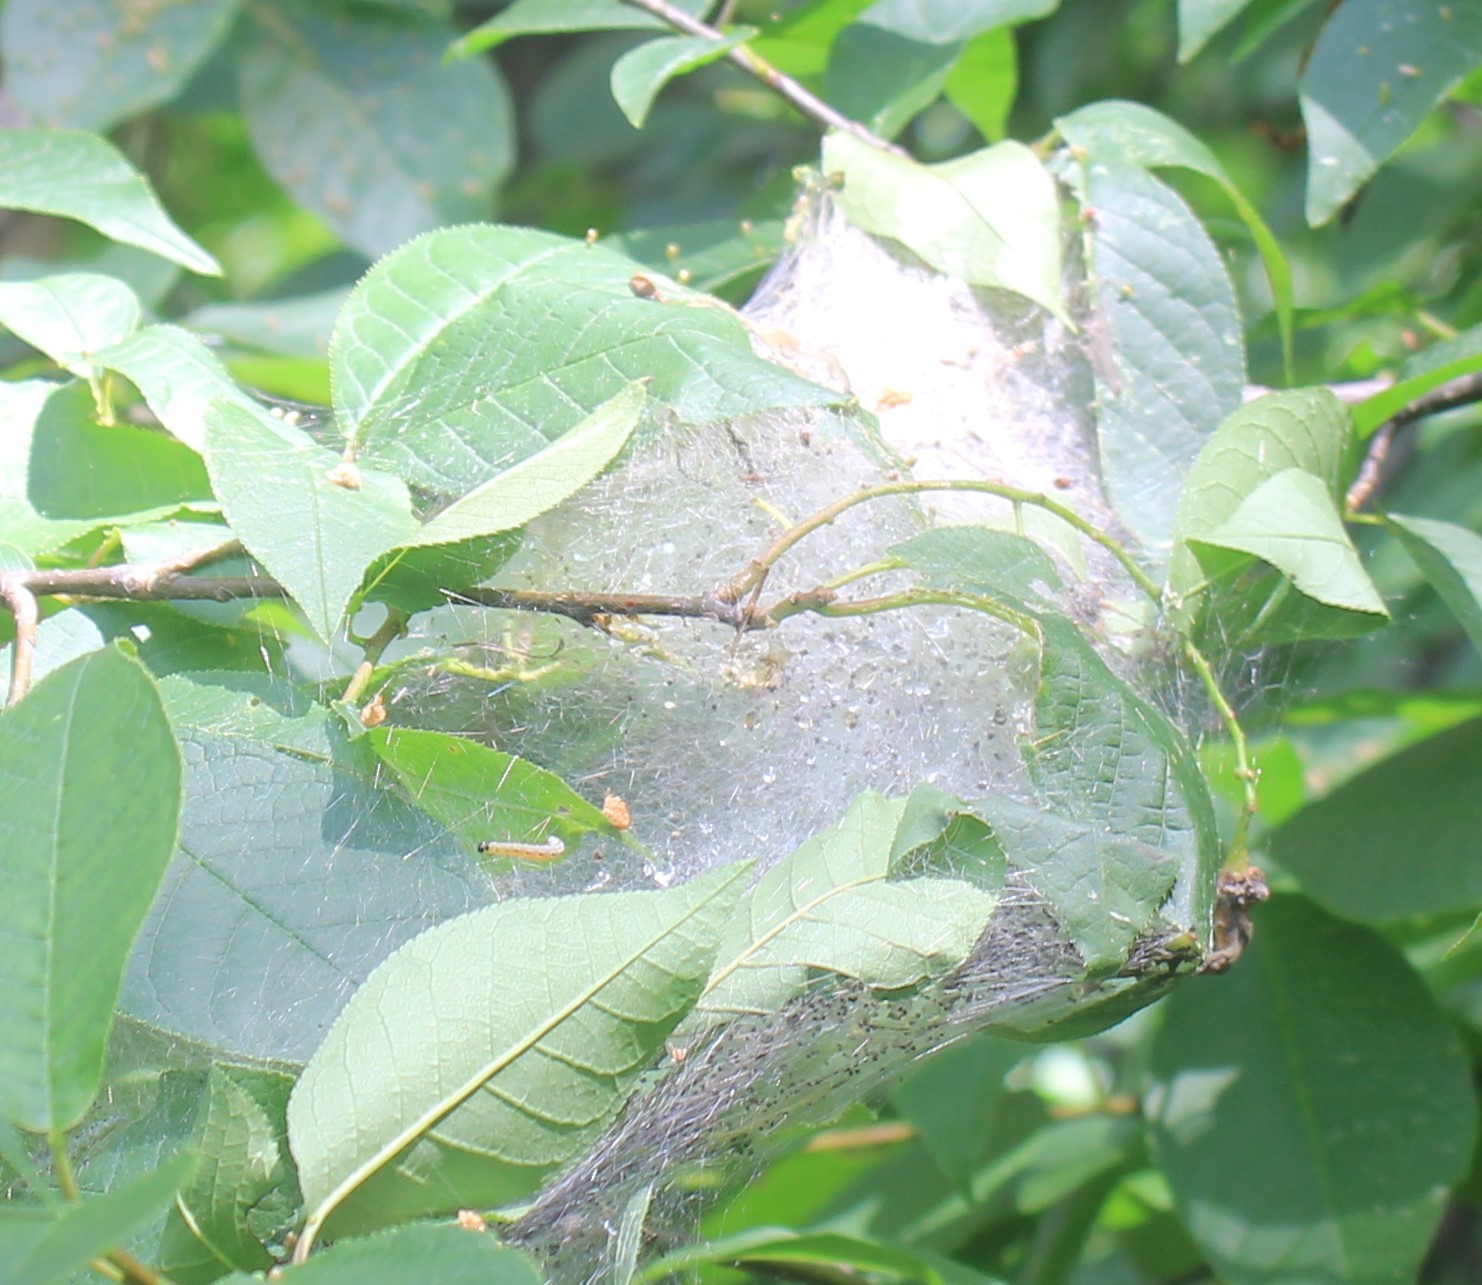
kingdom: Animalia
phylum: Arthropoda
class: Insecta
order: Lepidoptera
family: Yponomeutidae
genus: Yponomeuta
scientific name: Yponomeuta evonymella
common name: Bird-cherry ermine
